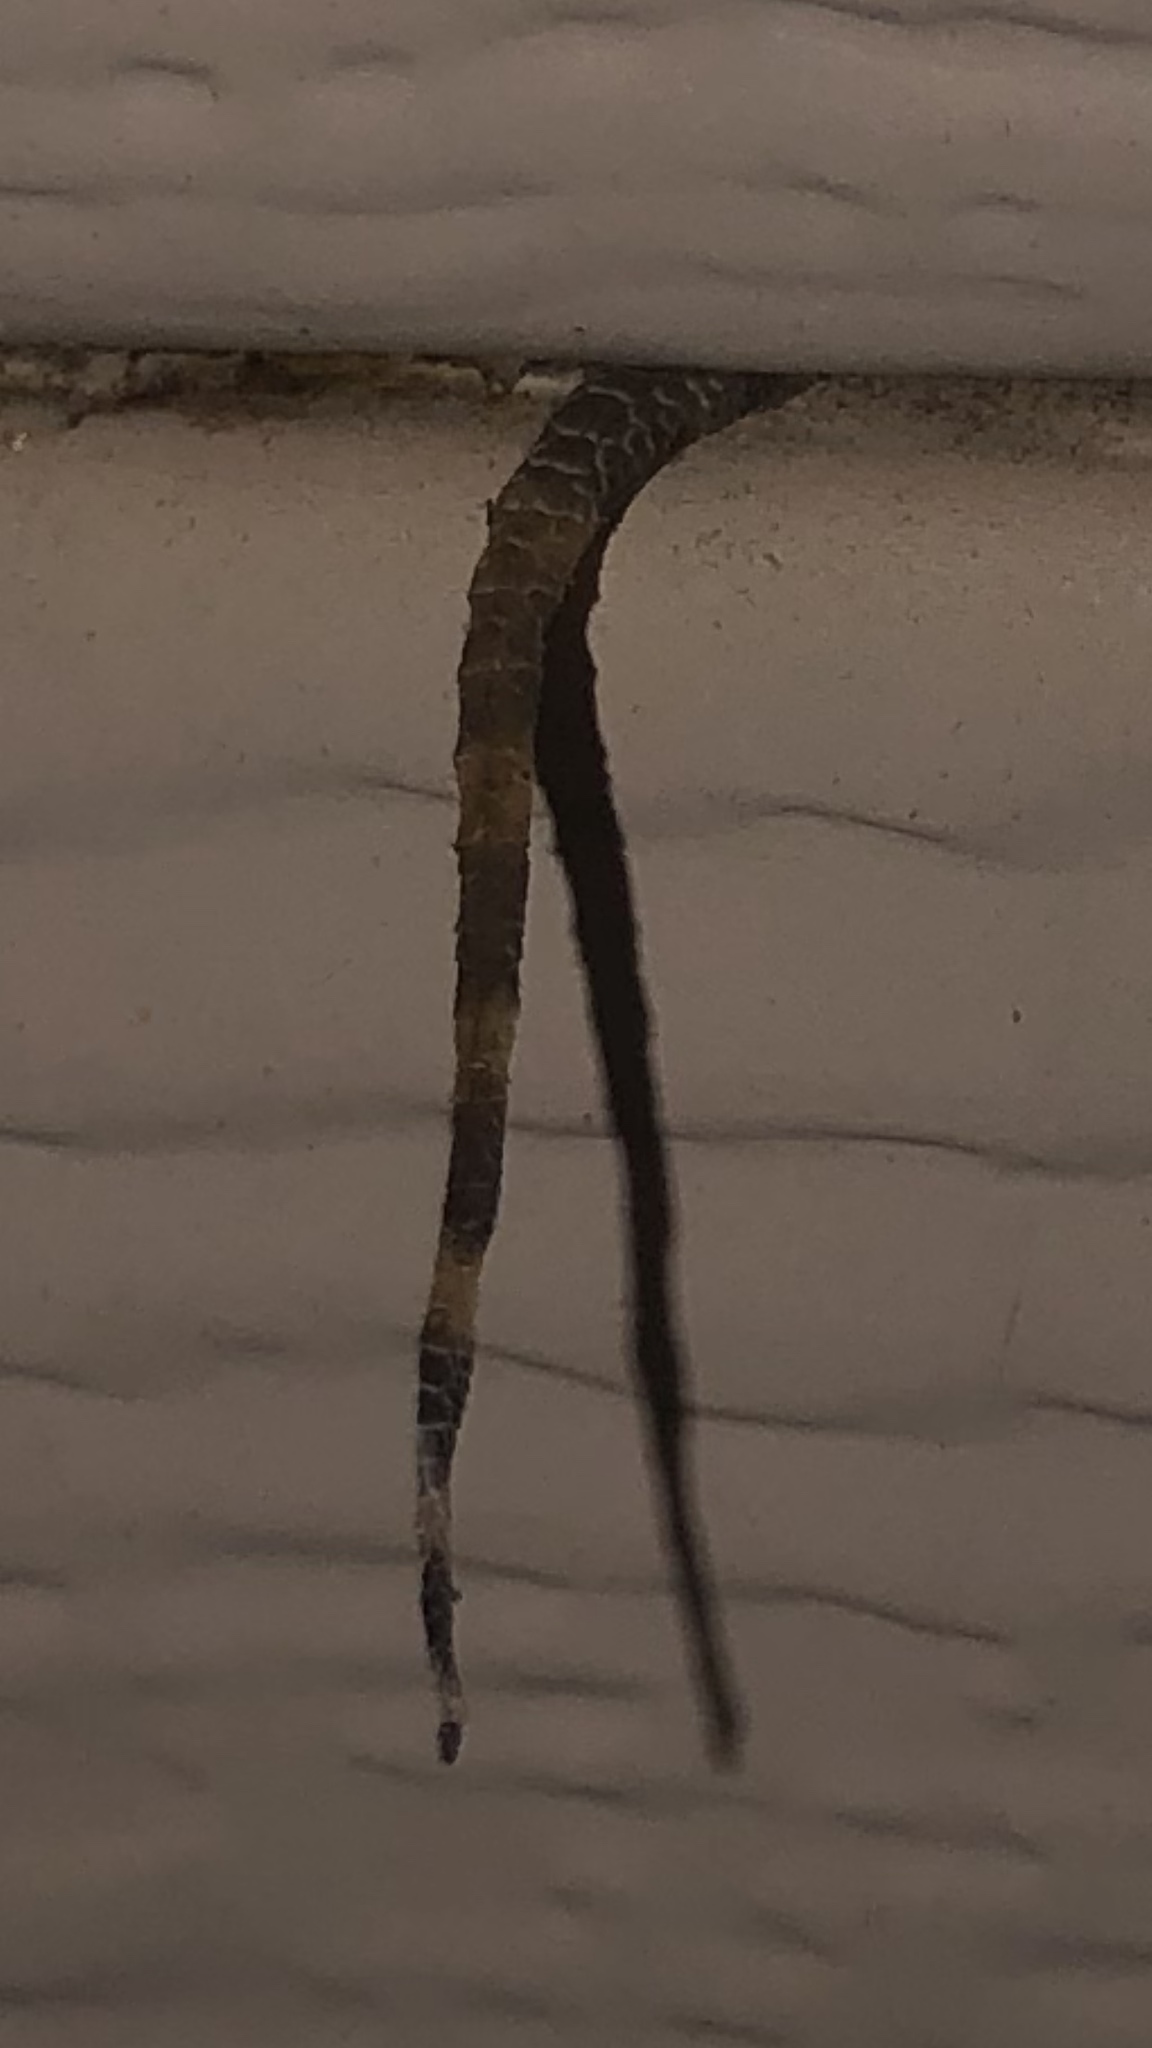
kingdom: Animalia
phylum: Chordata
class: Squamata
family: Gekkonidae
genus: Hemidactylus
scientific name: Hemidactylus turcicus
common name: Turkish gecko
